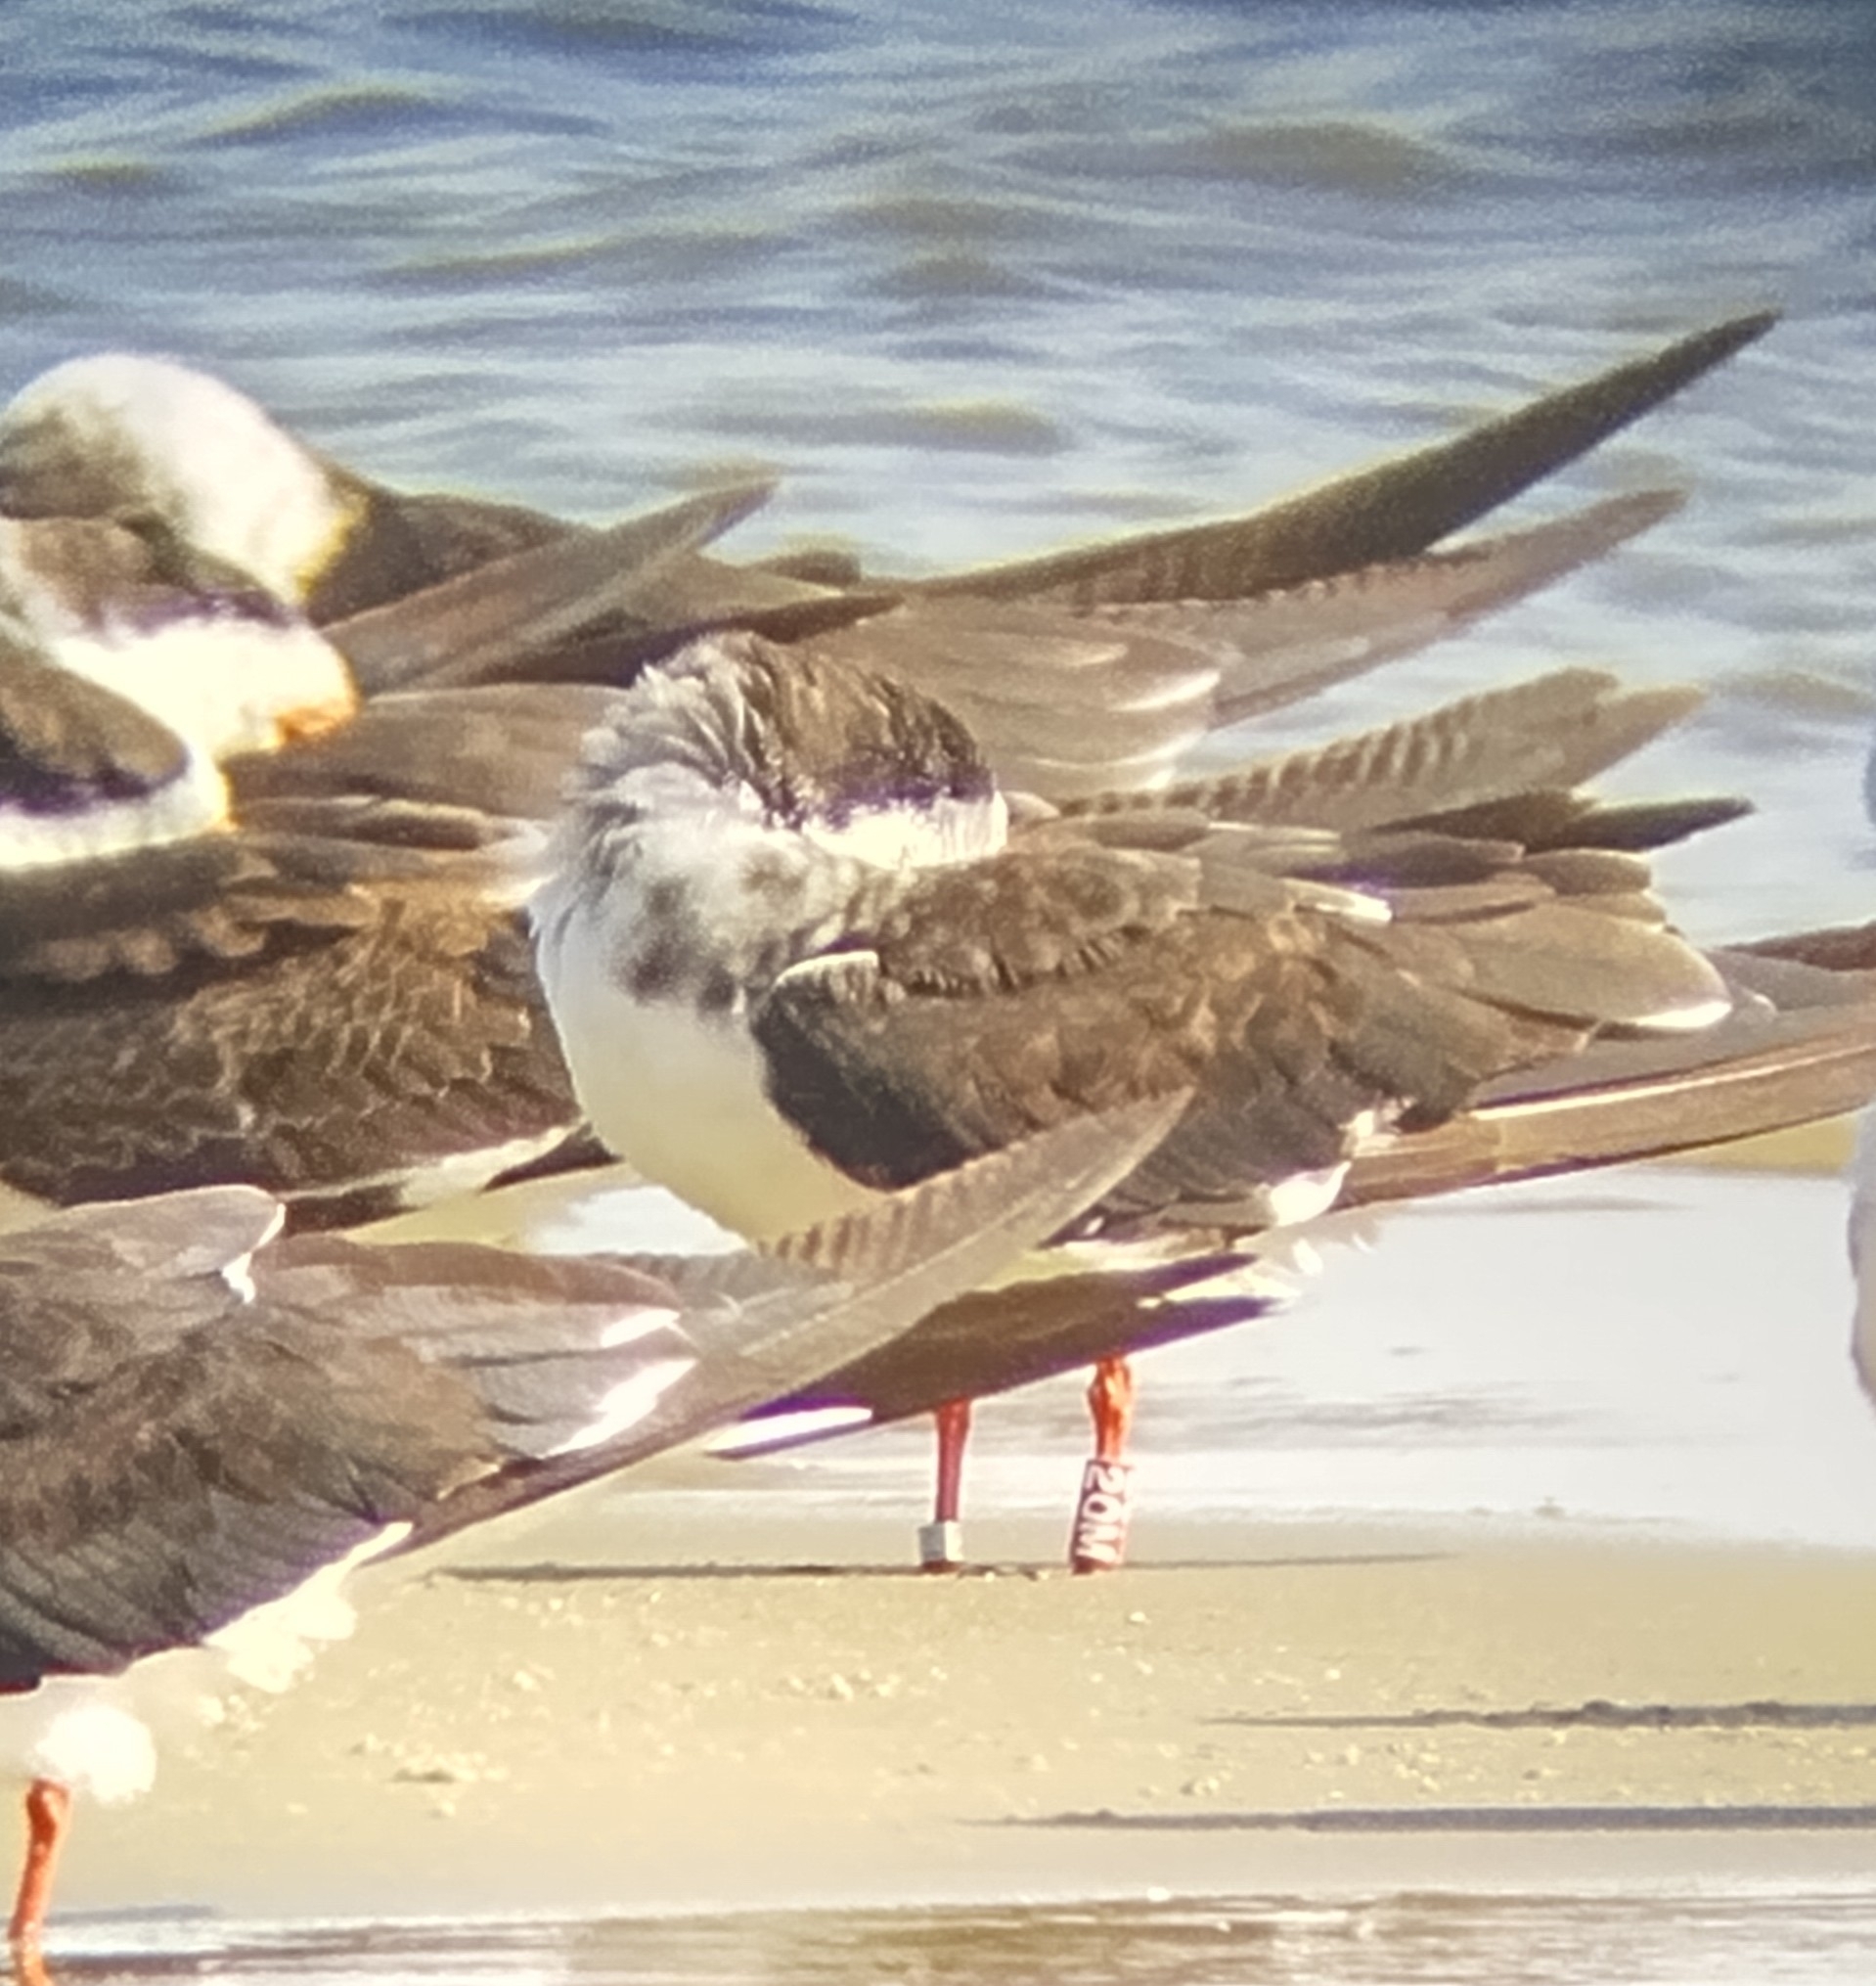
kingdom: Animalia
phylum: Chordata
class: Aves
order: Charadriiformes
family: Laridae
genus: Rynchops
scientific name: Rynchops niger
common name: Black skimmer
